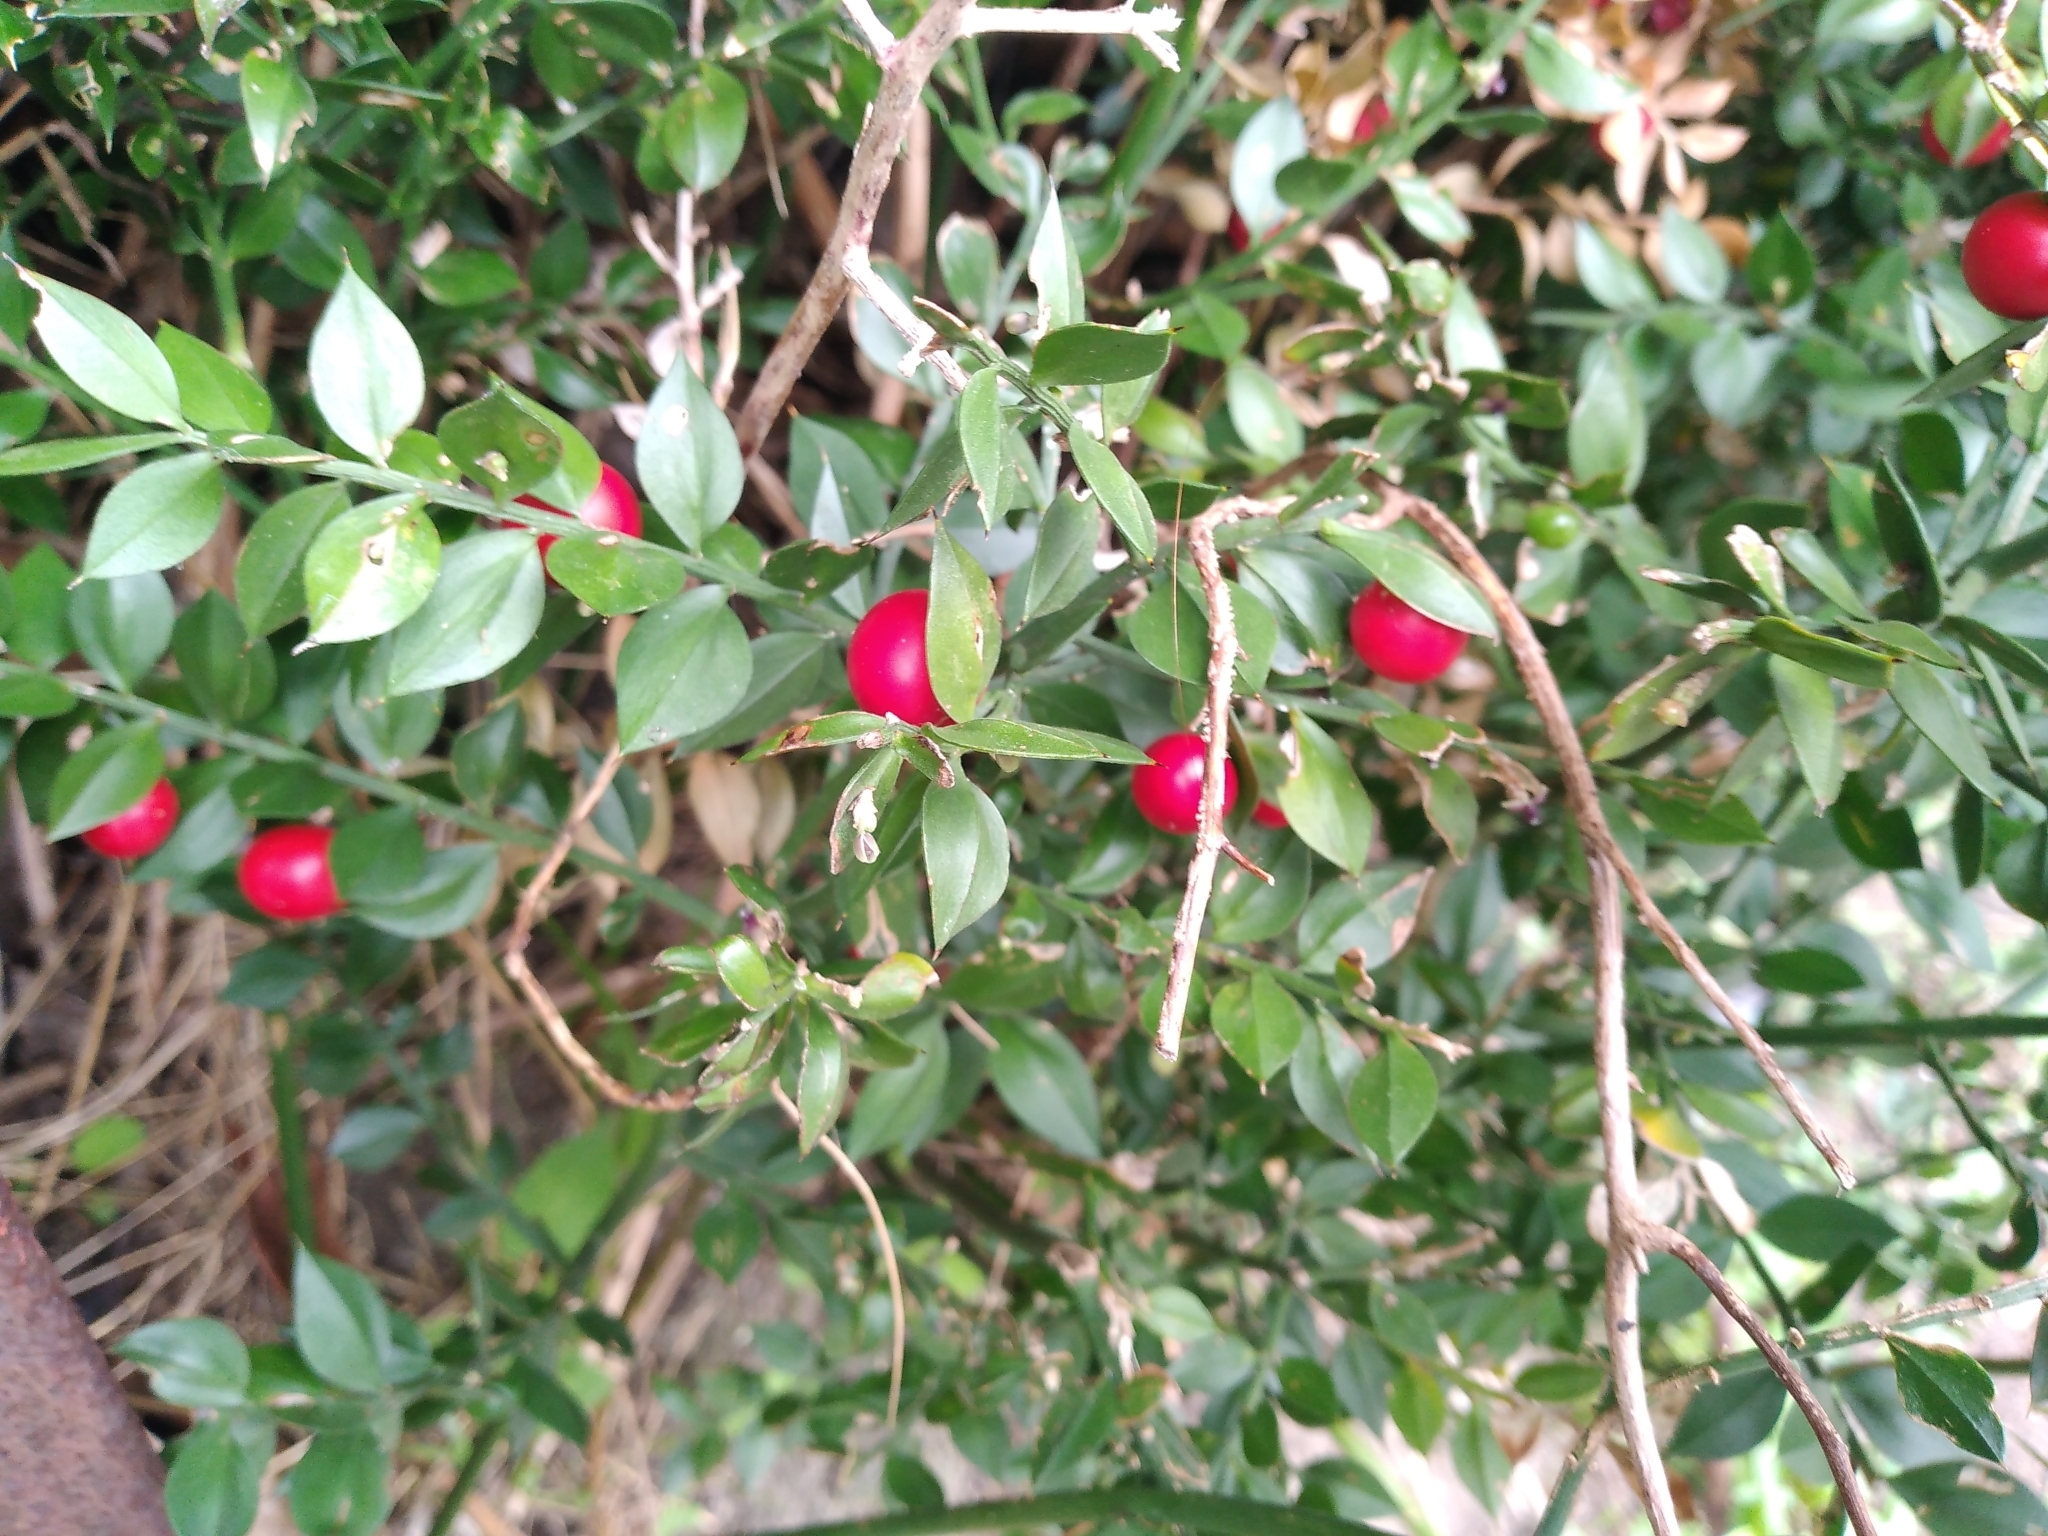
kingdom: Plantae
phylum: Tracheophyta
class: Liliopsida
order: Asparagales
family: Asparagaceae
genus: Ruscus
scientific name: Ruscus aculeatus
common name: Butcher's-broom
